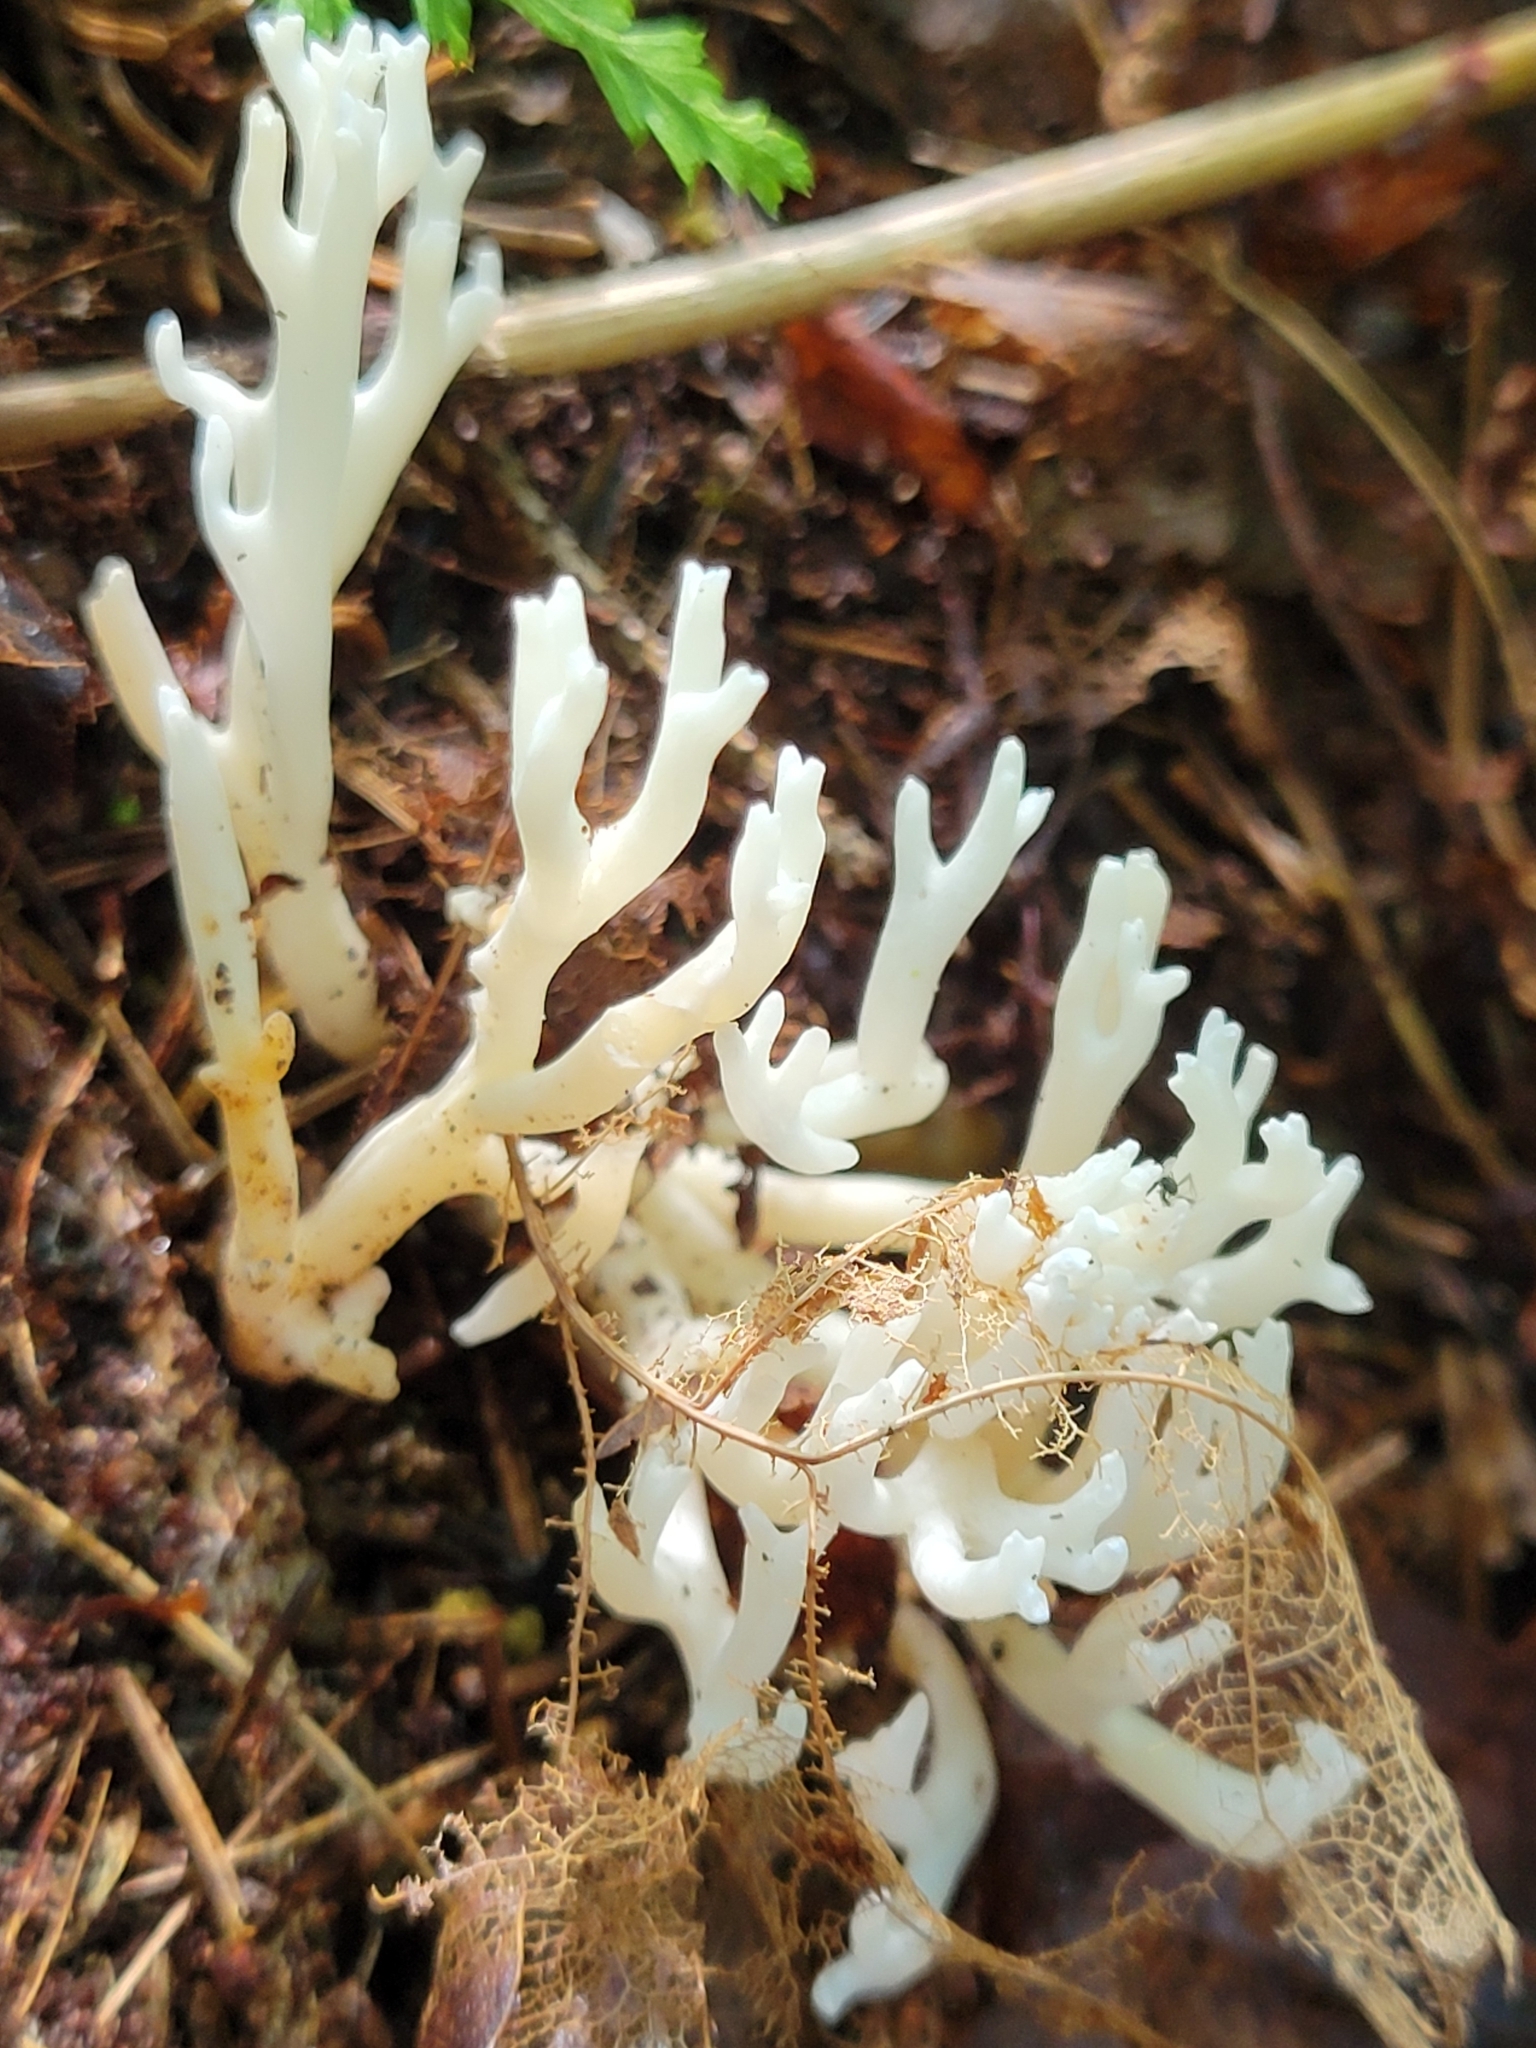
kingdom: Fungi
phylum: Basidiomycota
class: Agaricomycetes
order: Agaricales
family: Clavariaceae
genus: Ramariopsis
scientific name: Ramariopsis kunzei
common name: Ivory coral
